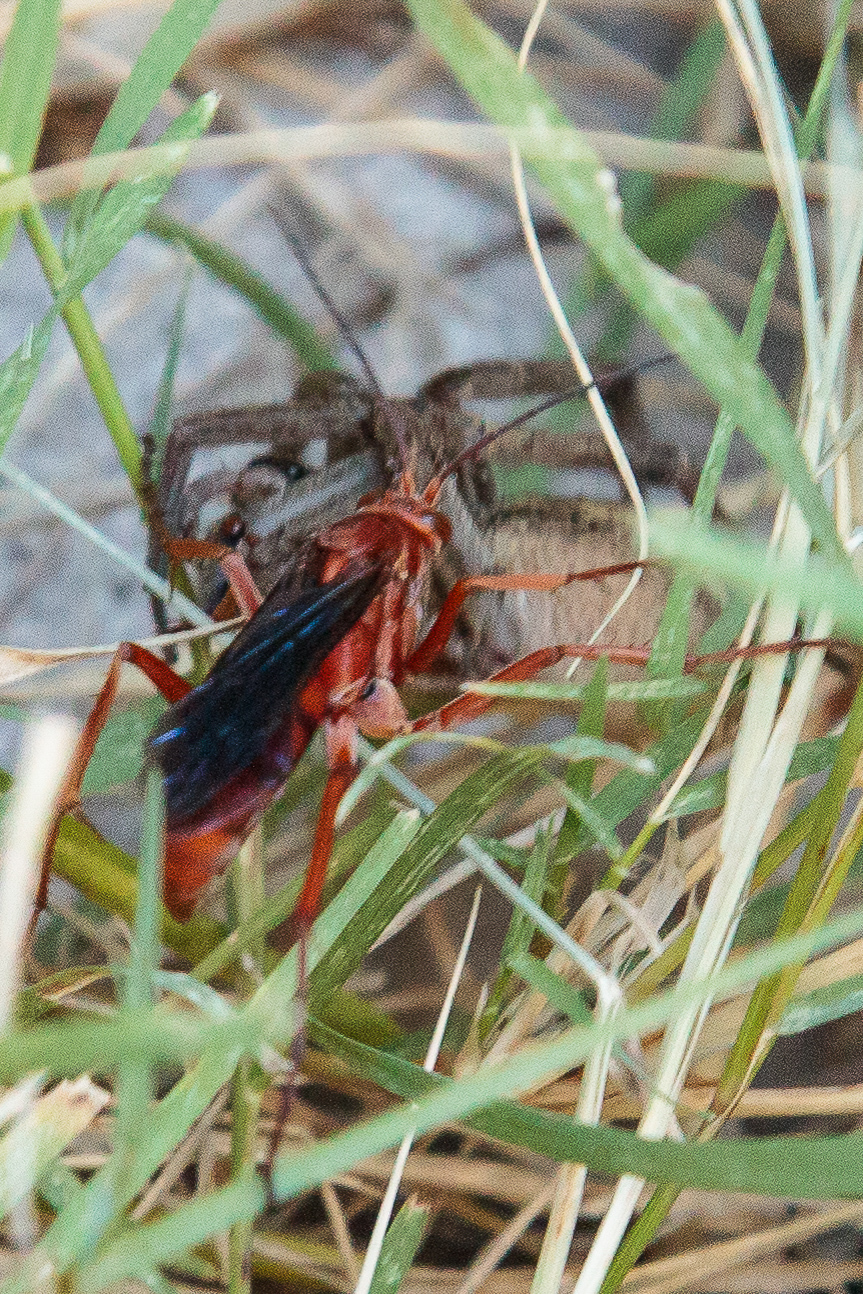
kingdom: Animalia
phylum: Arthropoda
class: Insecta
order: Hymenoptera
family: Pompilidae
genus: Tachypompilus
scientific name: Tachypompilus ferrugineus
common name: Rusty spider wasp
